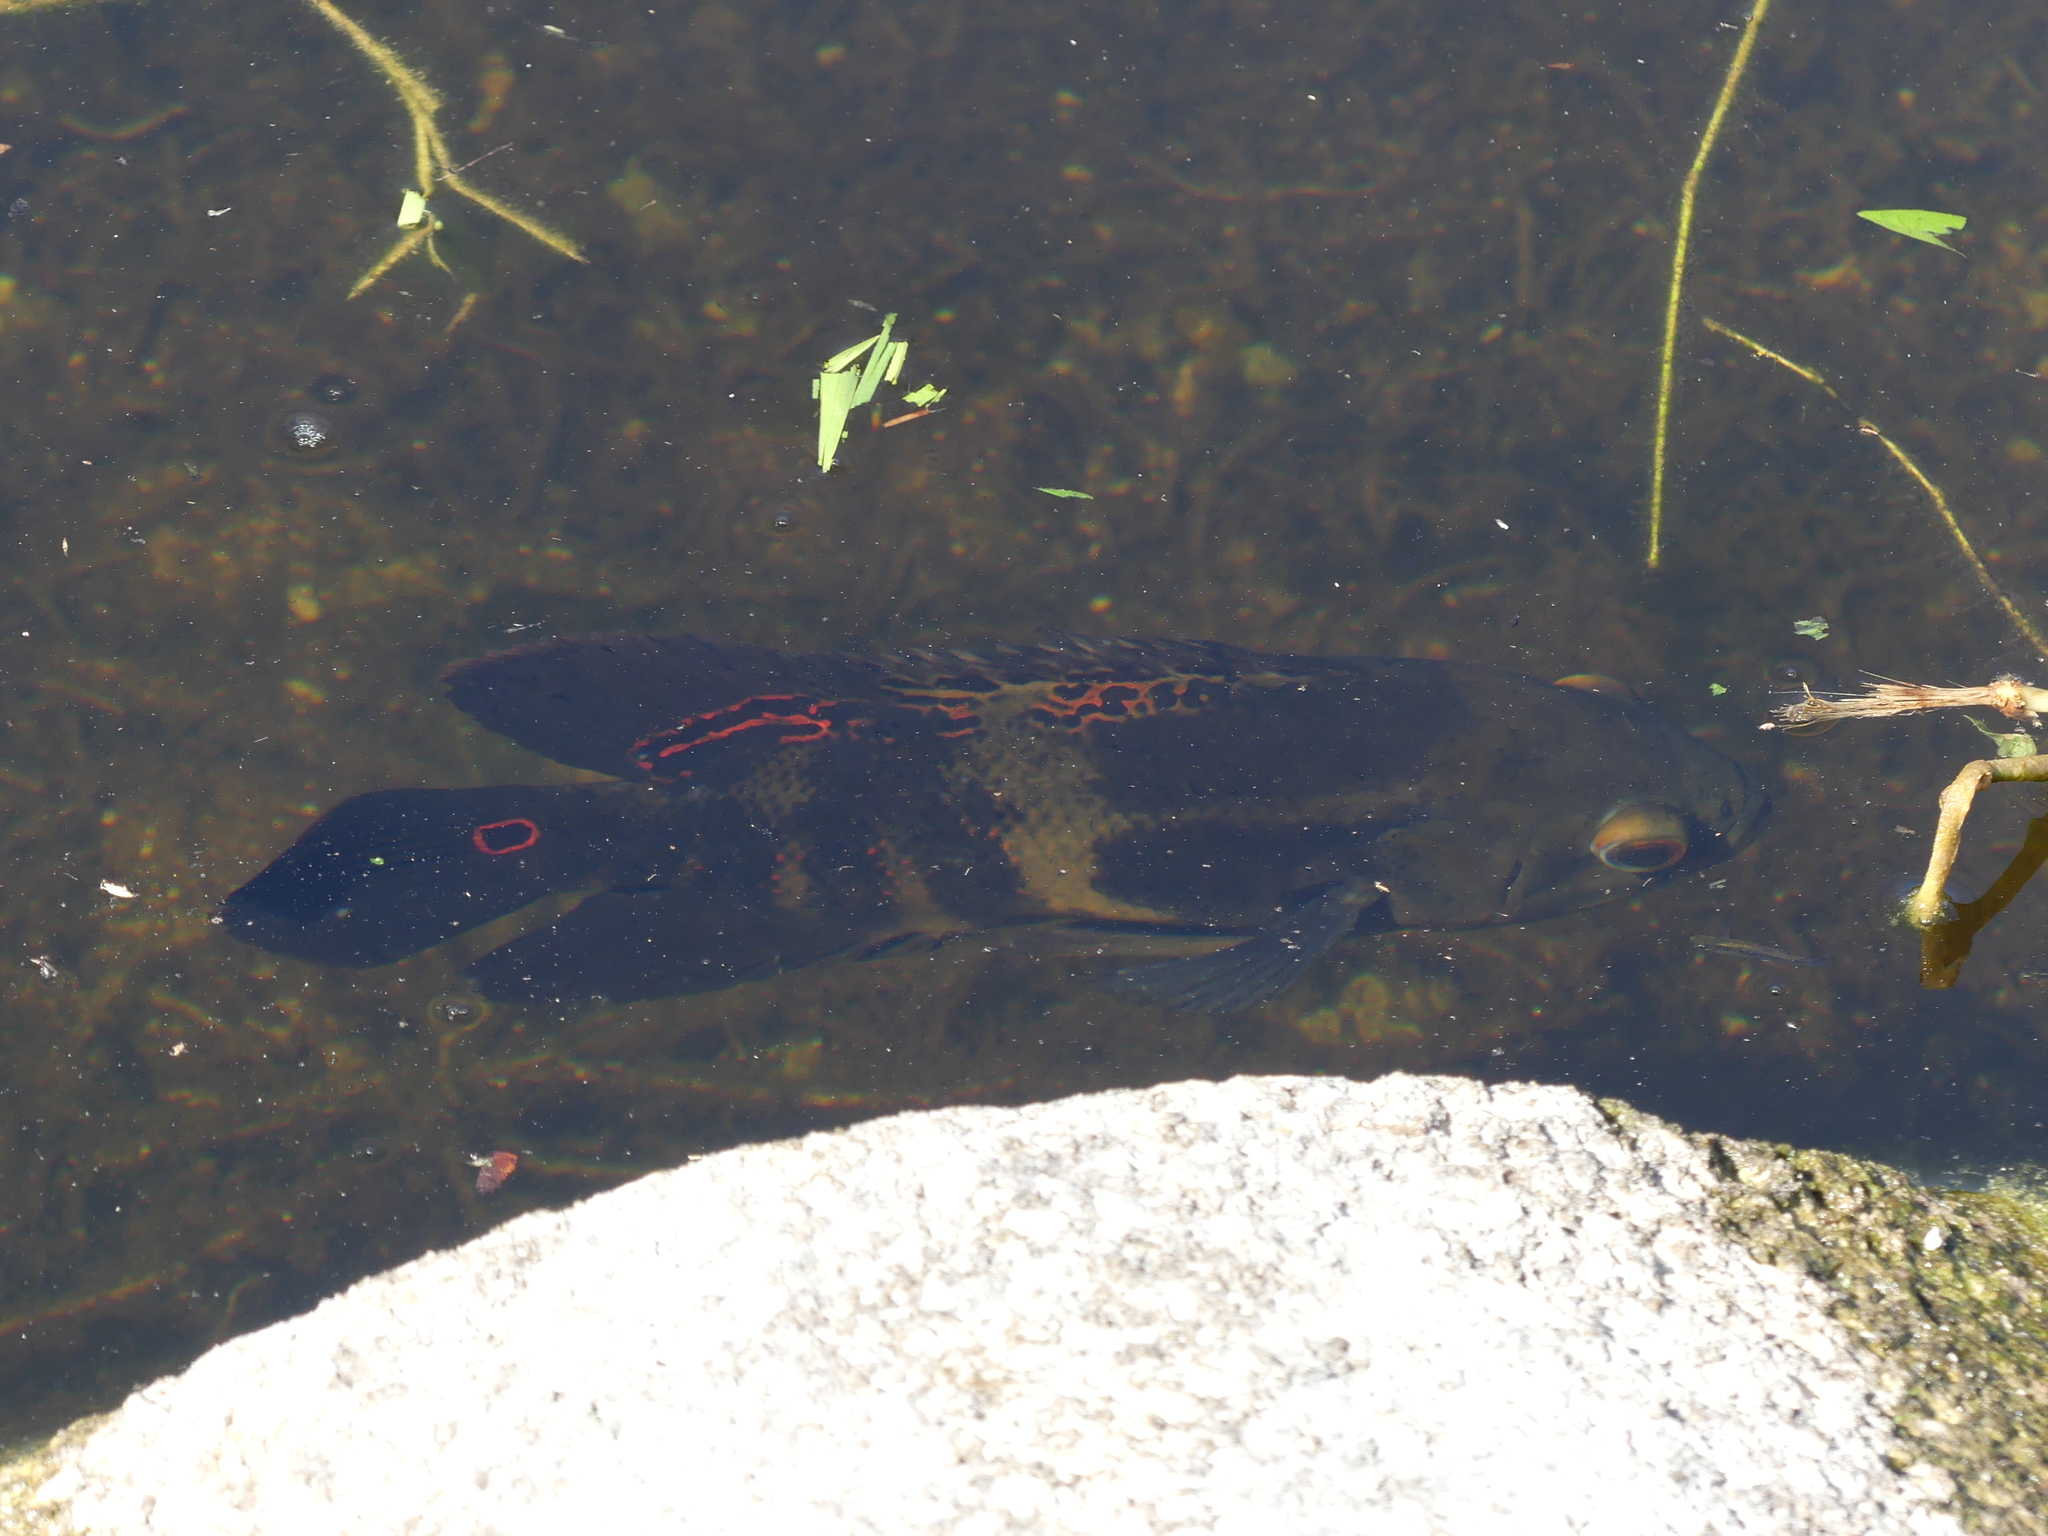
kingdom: Animalia
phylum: Chordata
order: Perciformes
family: Cichlidae
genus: Astronotus
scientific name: Astronotus ocellatus
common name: Oscar
